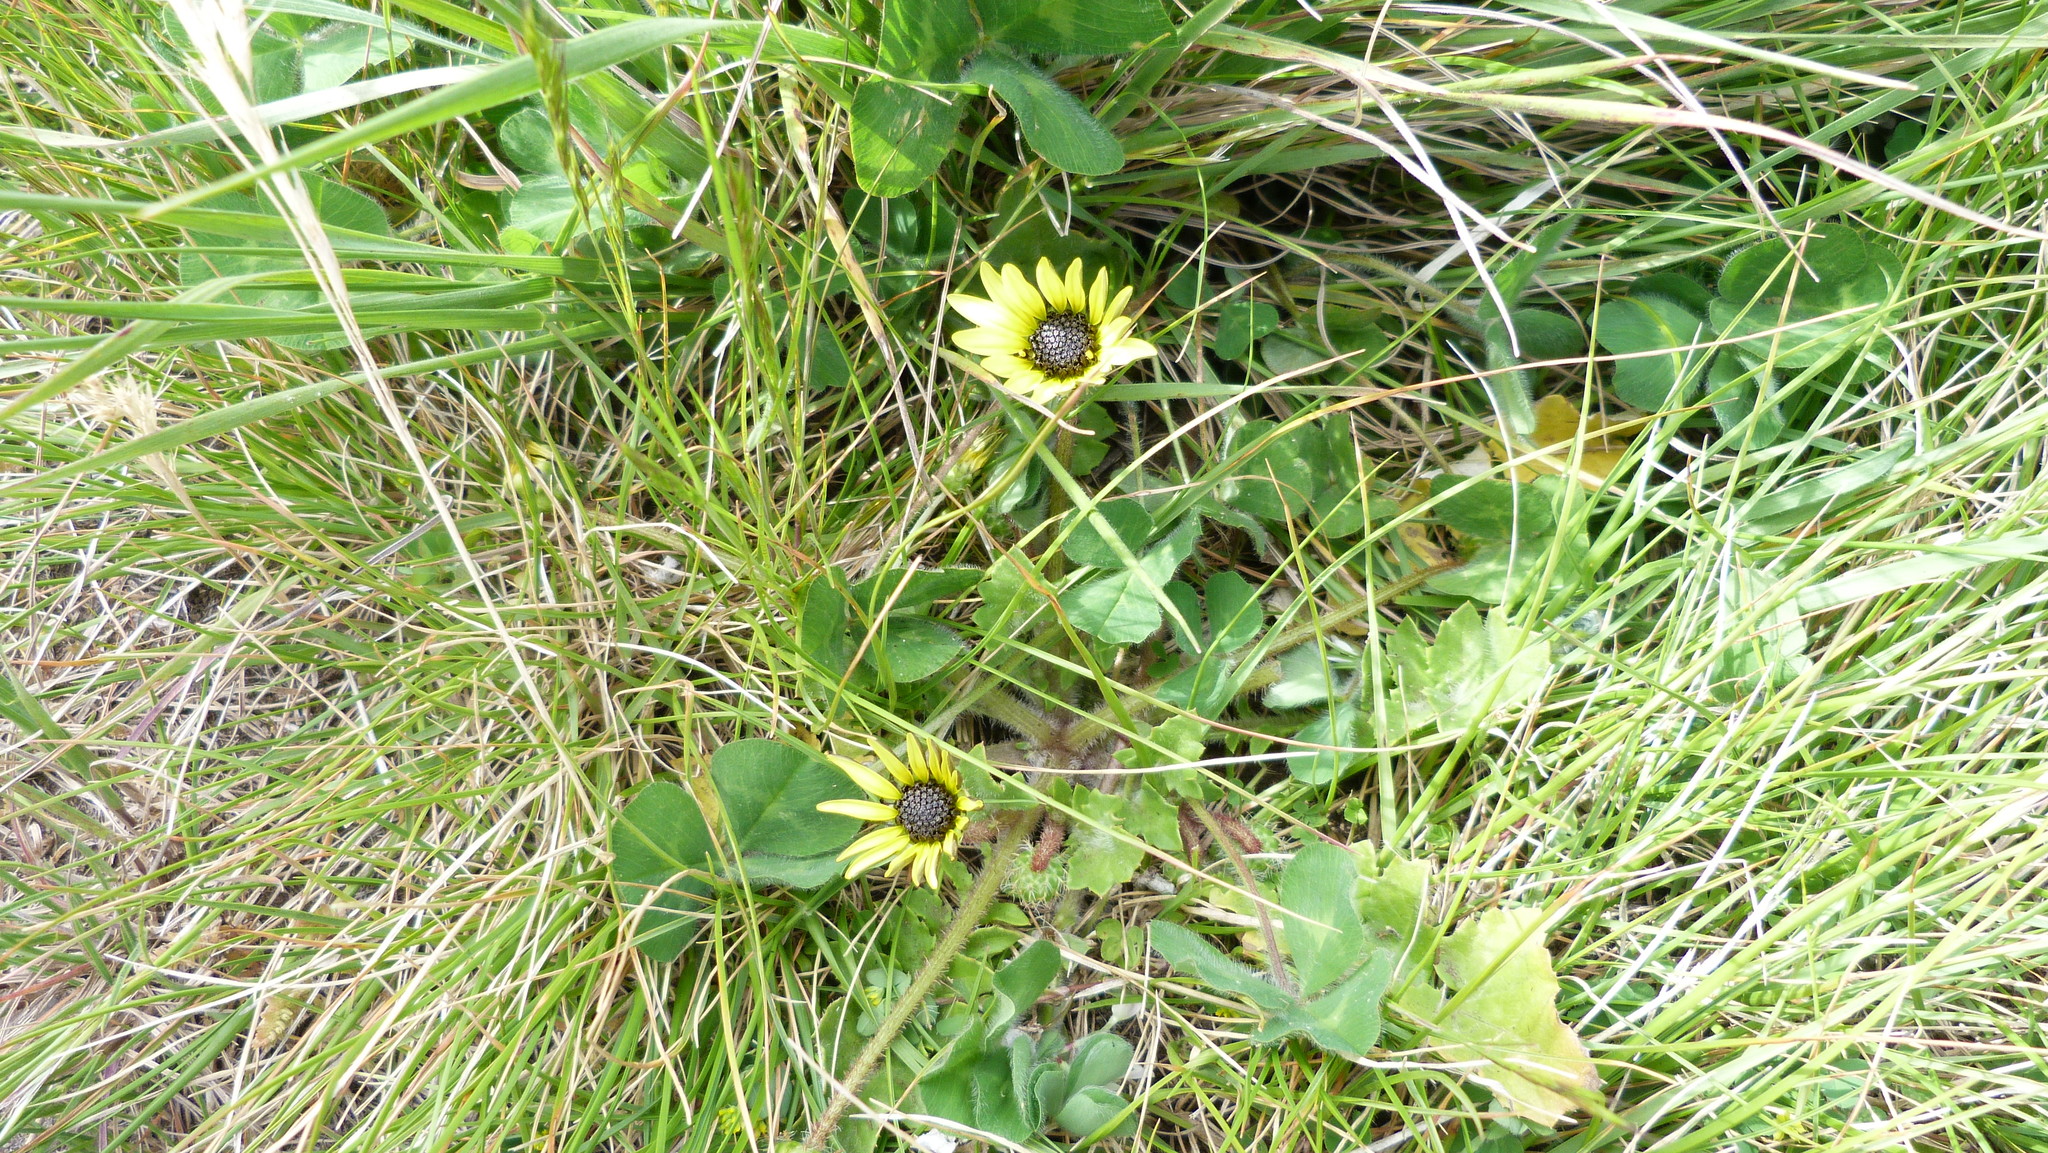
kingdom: Plantae
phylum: Tracheophyta
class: Magnoliopsida
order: Asterales
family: Asteraceae
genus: Arctotheca
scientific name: Arctotheca calendula
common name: Capeweed
